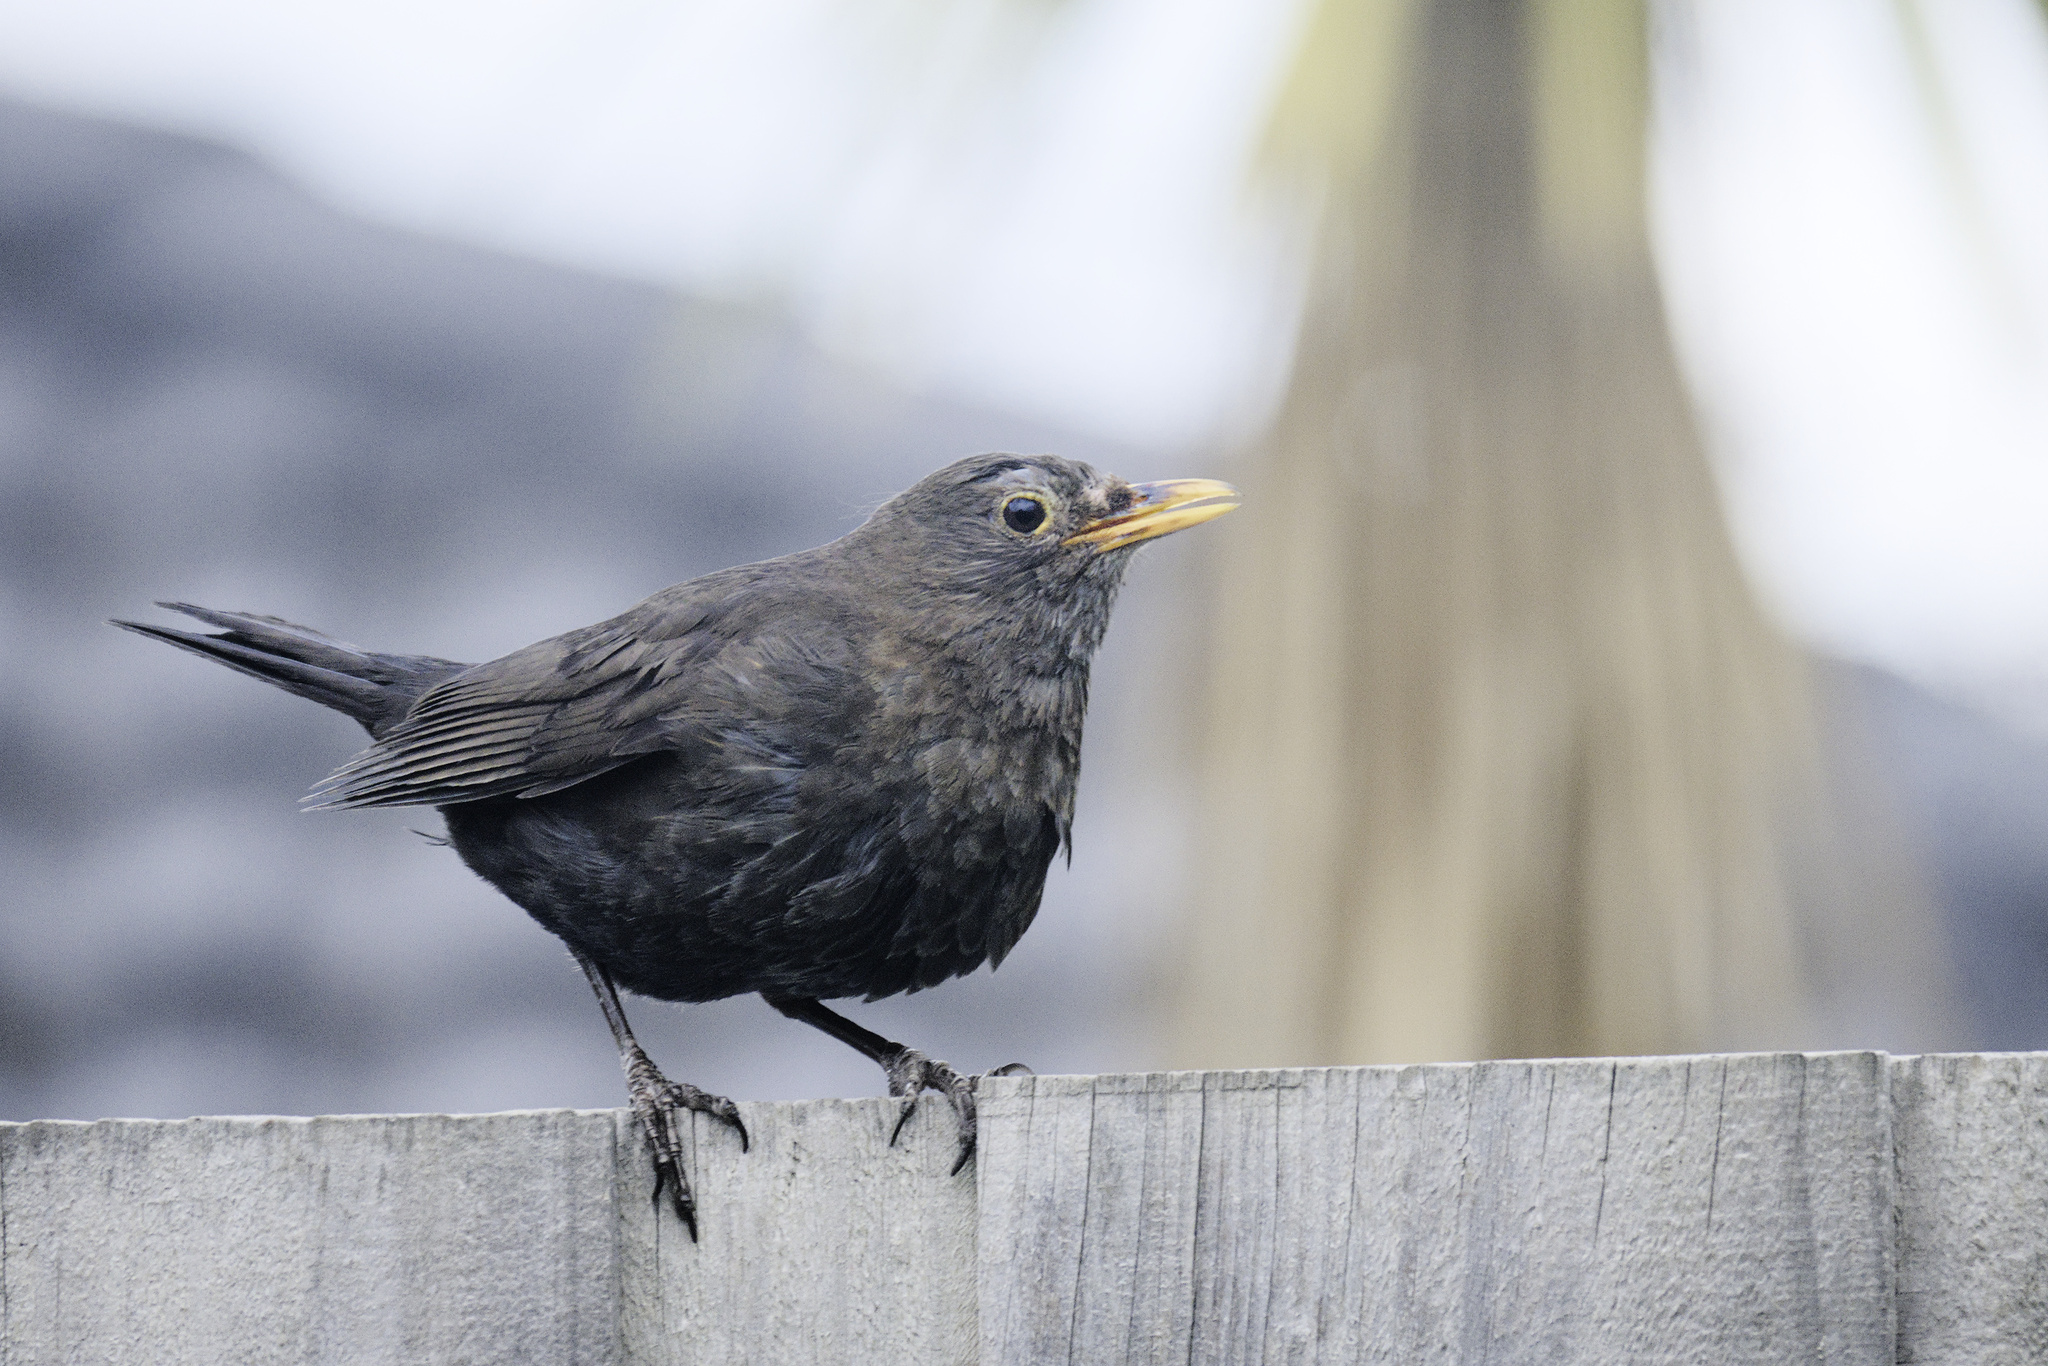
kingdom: Animalia
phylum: Chordata
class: Aves
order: Passeriformes
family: Turdidae
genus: Turdus
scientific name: Turdus merula
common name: Common blackbird
